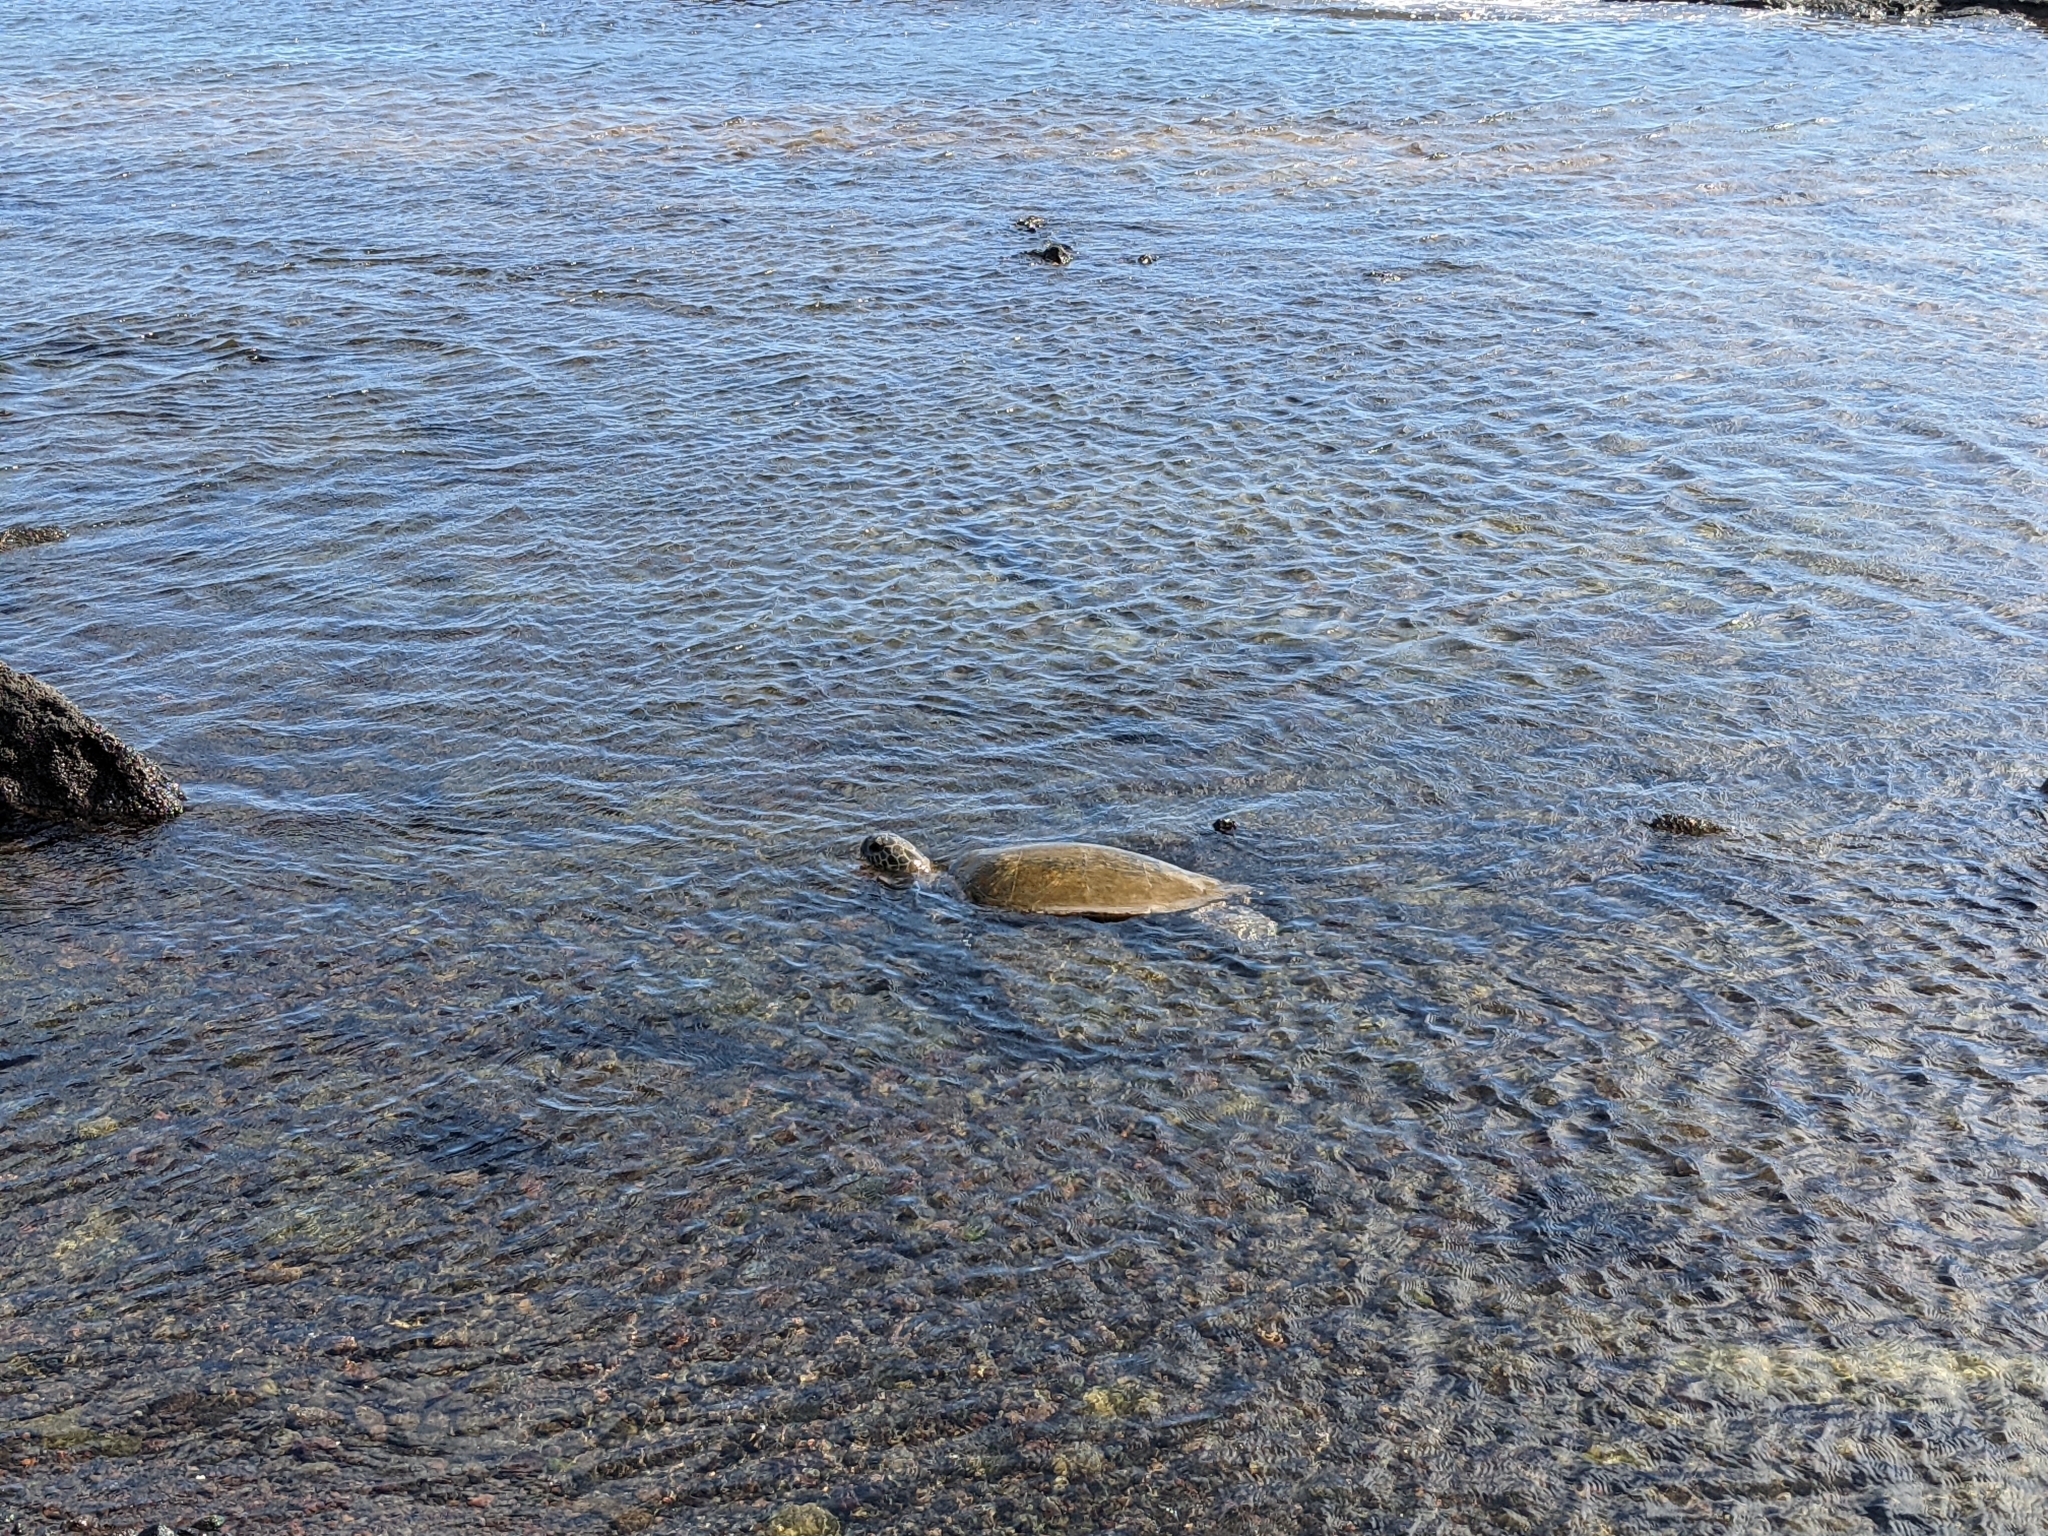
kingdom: Animalia
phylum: Chordata
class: Testudines
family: Cheloniidae
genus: Chelonia
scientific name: Chelonia mydas
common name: Green turtle
